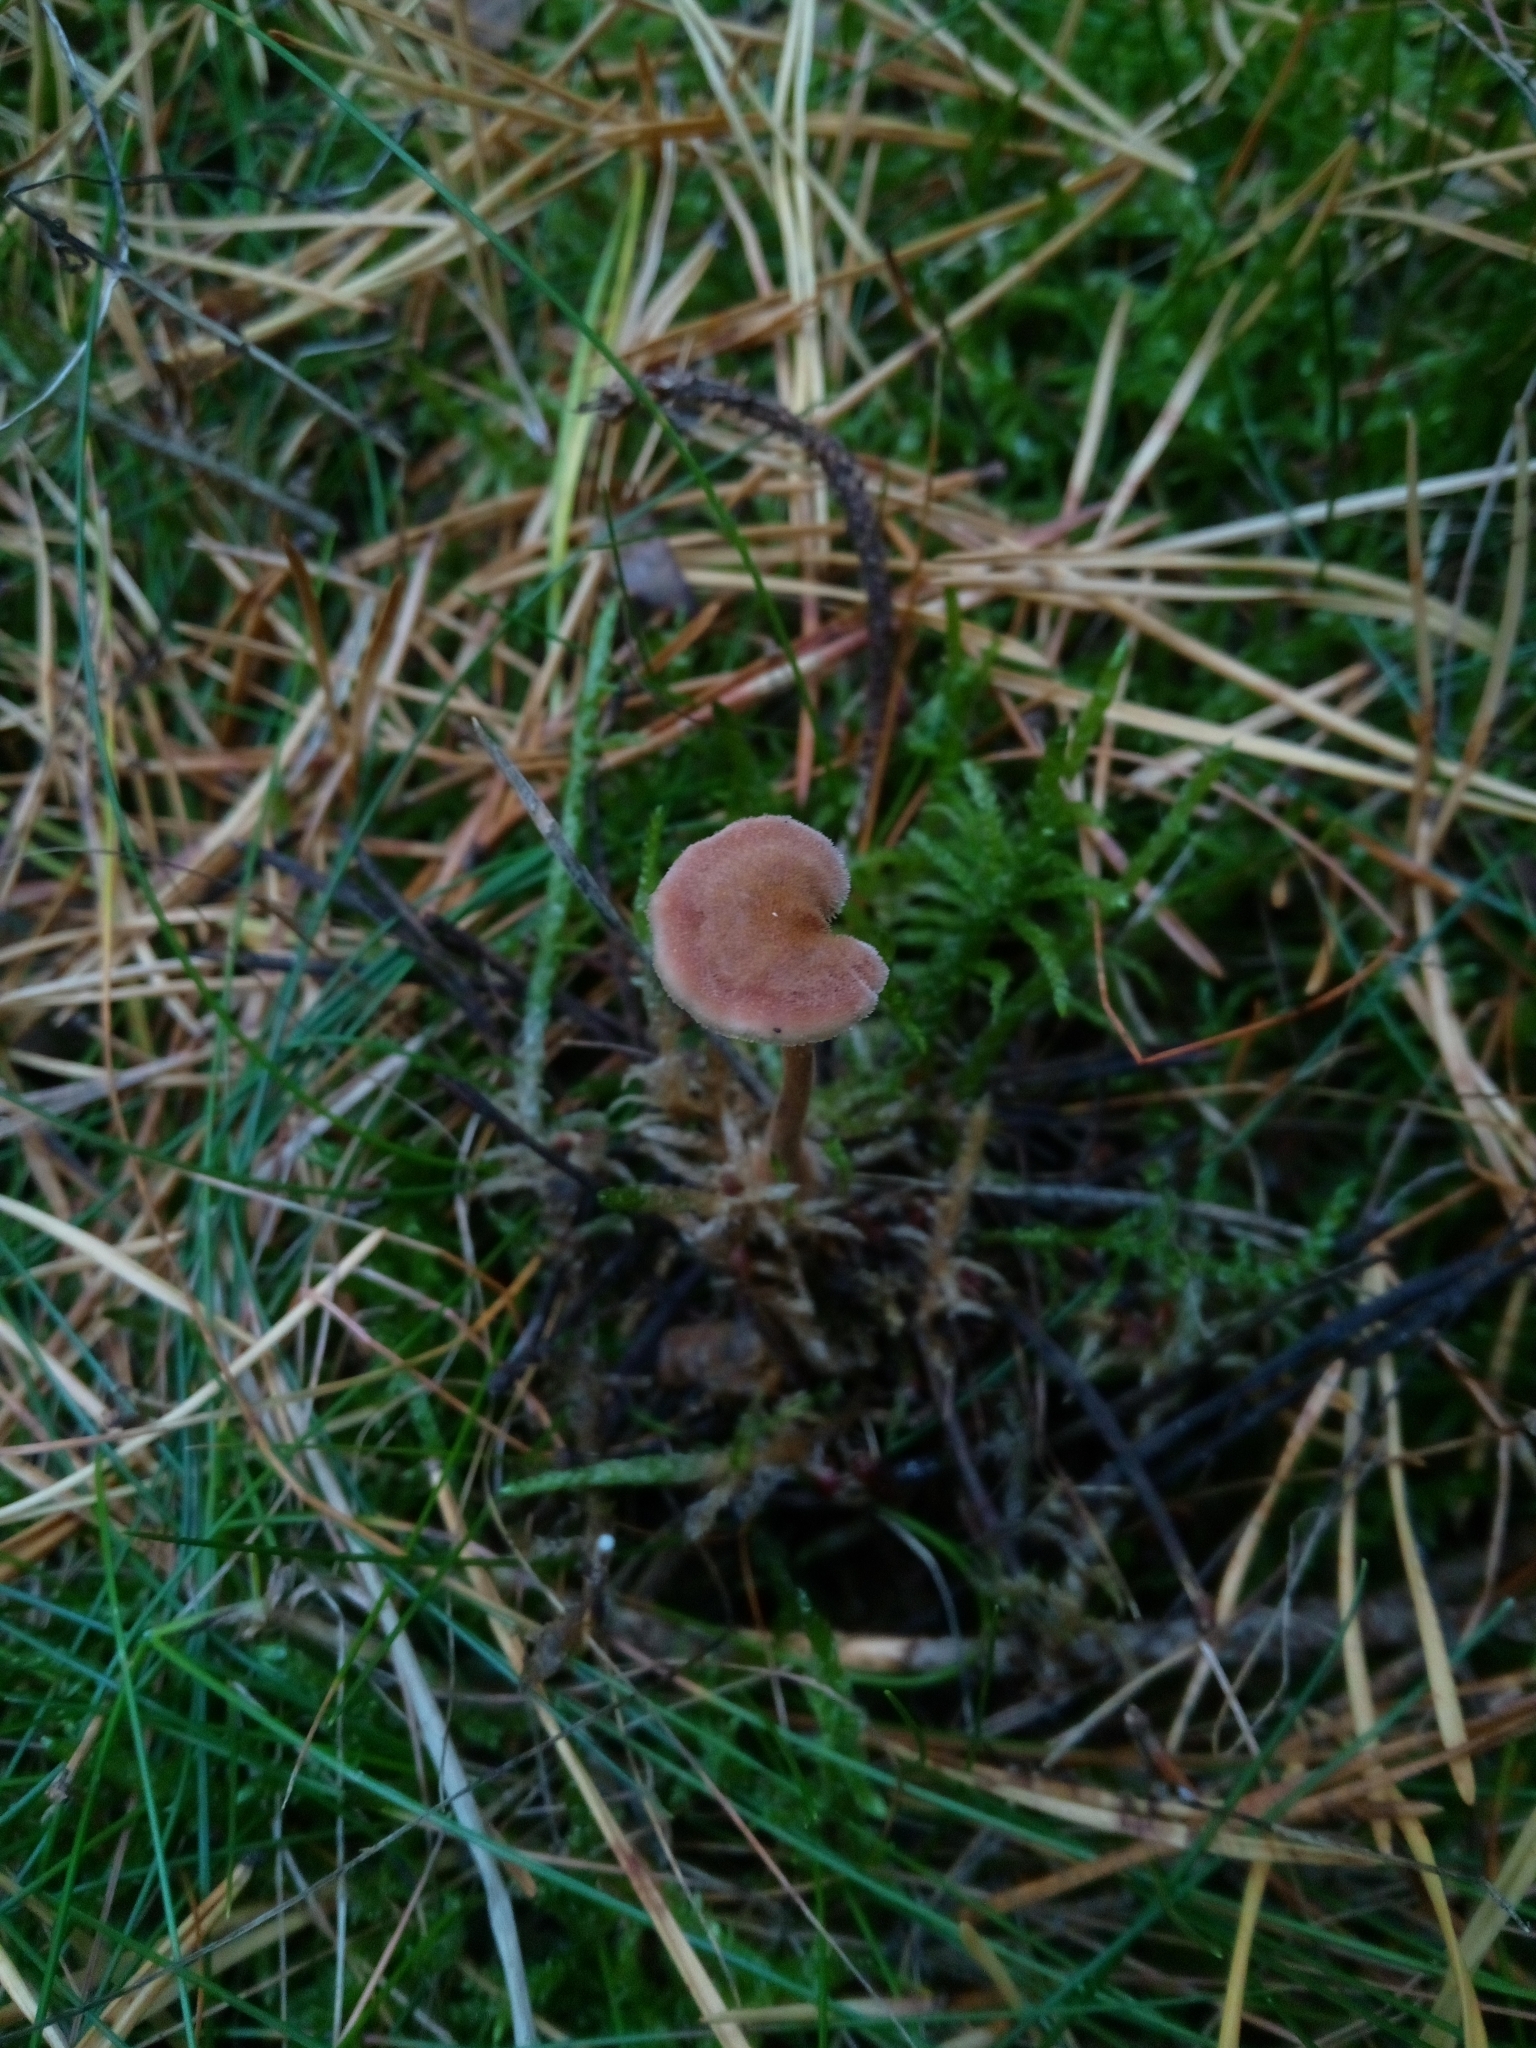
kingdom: Fungi
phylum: Basidiomycota
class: Agaricomycetes
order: Russulales
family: Auriscalpiaceae
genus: Auriscalpium
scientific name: Auriscalpium vulgare
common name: Earpick fungus
